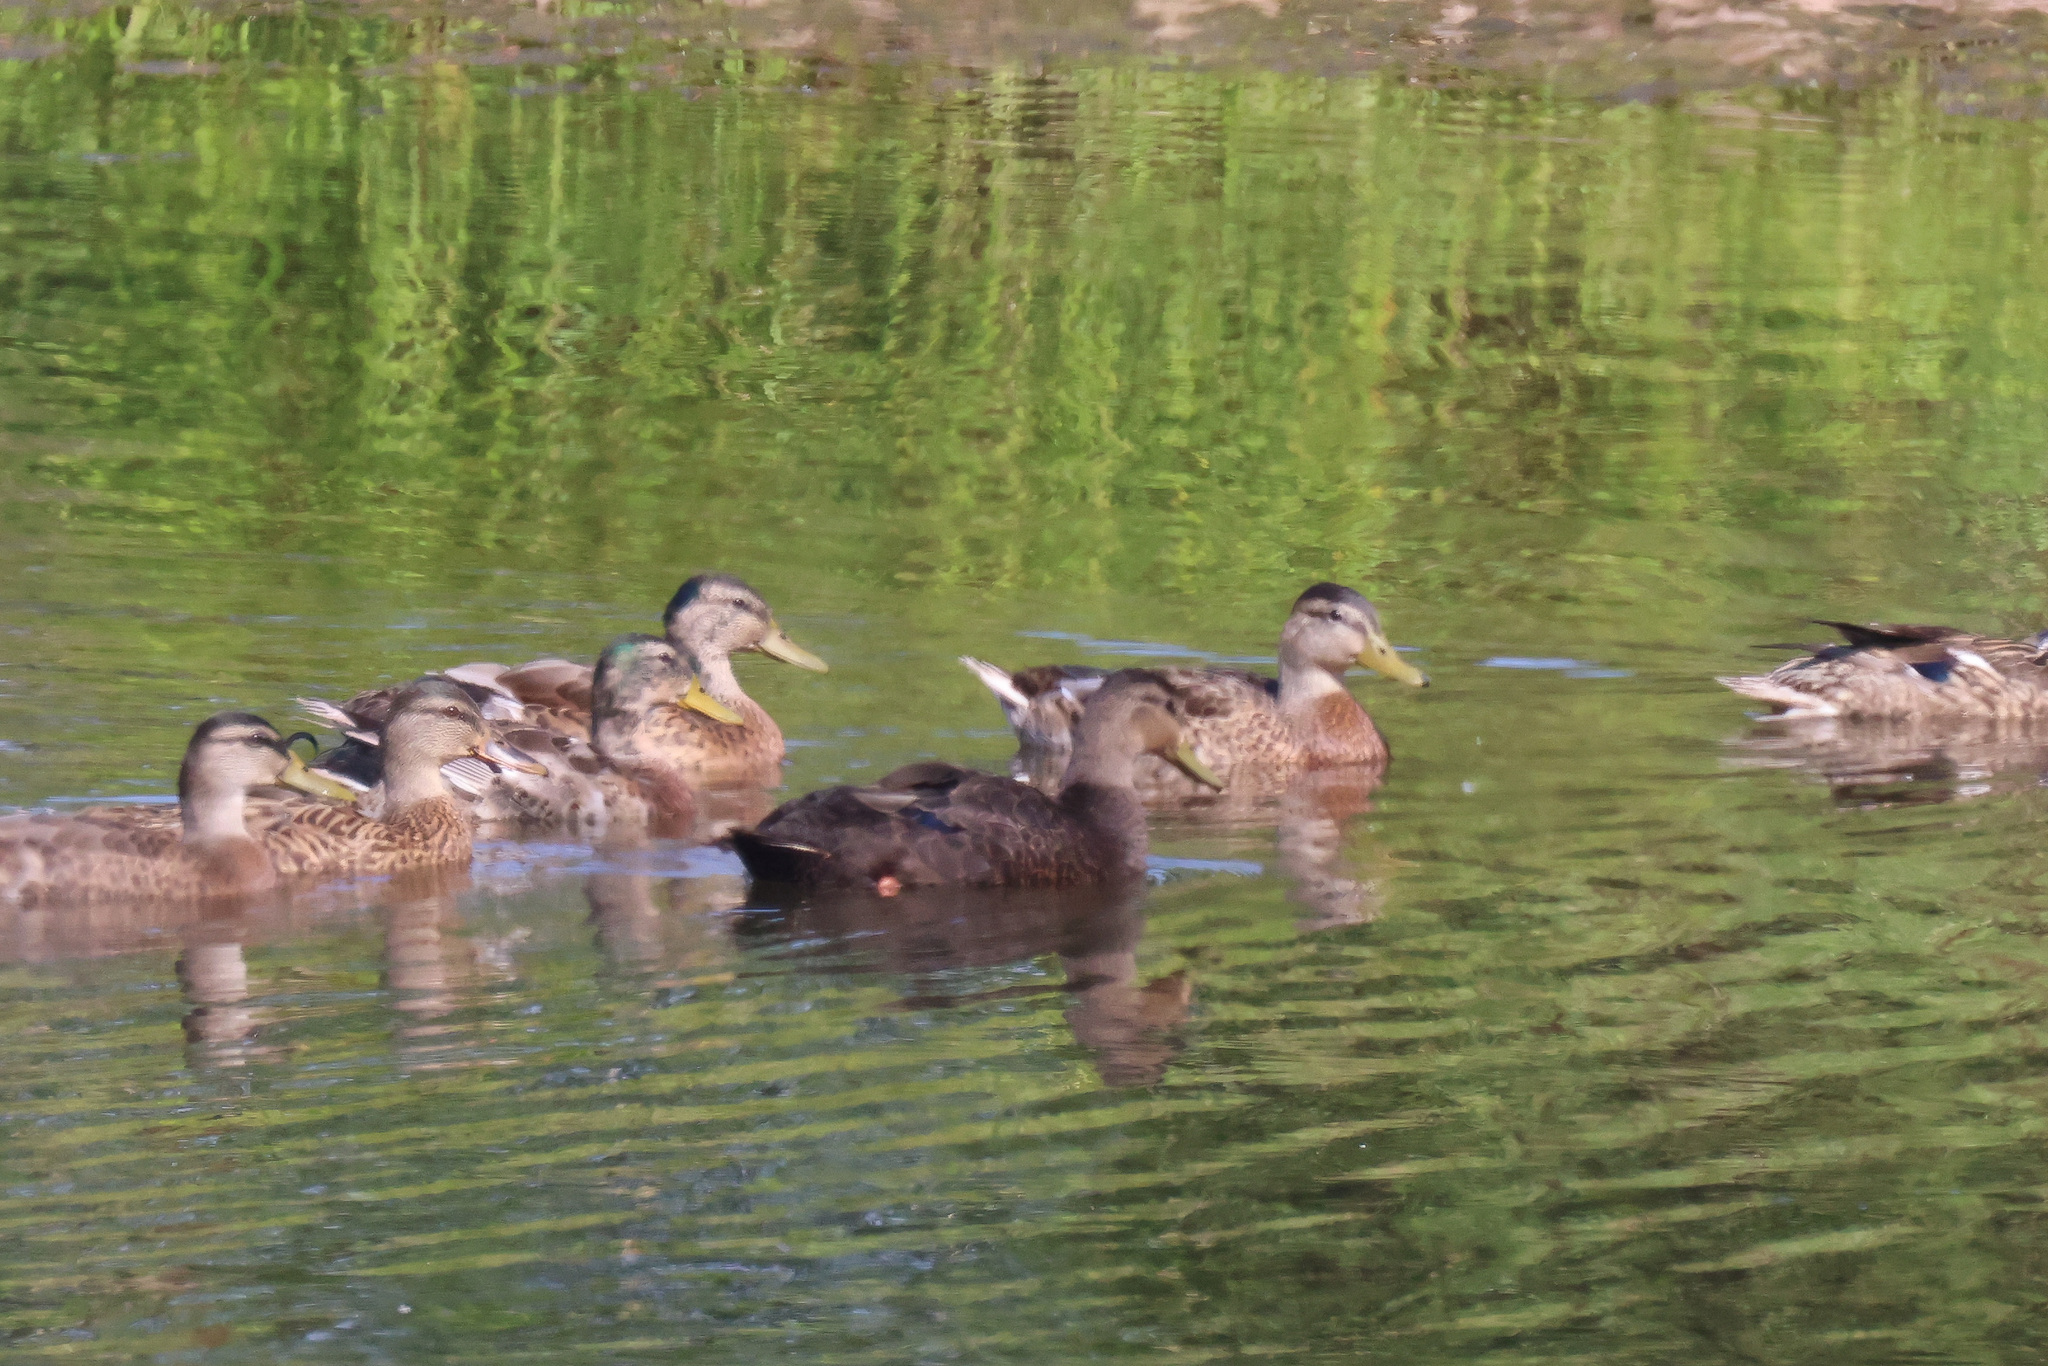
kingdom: Animalia
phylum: Chordata
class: Aves
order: Anseriformes
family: Anatidae
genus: Anas
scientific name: Anas platyrhynchos
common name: Mallard
